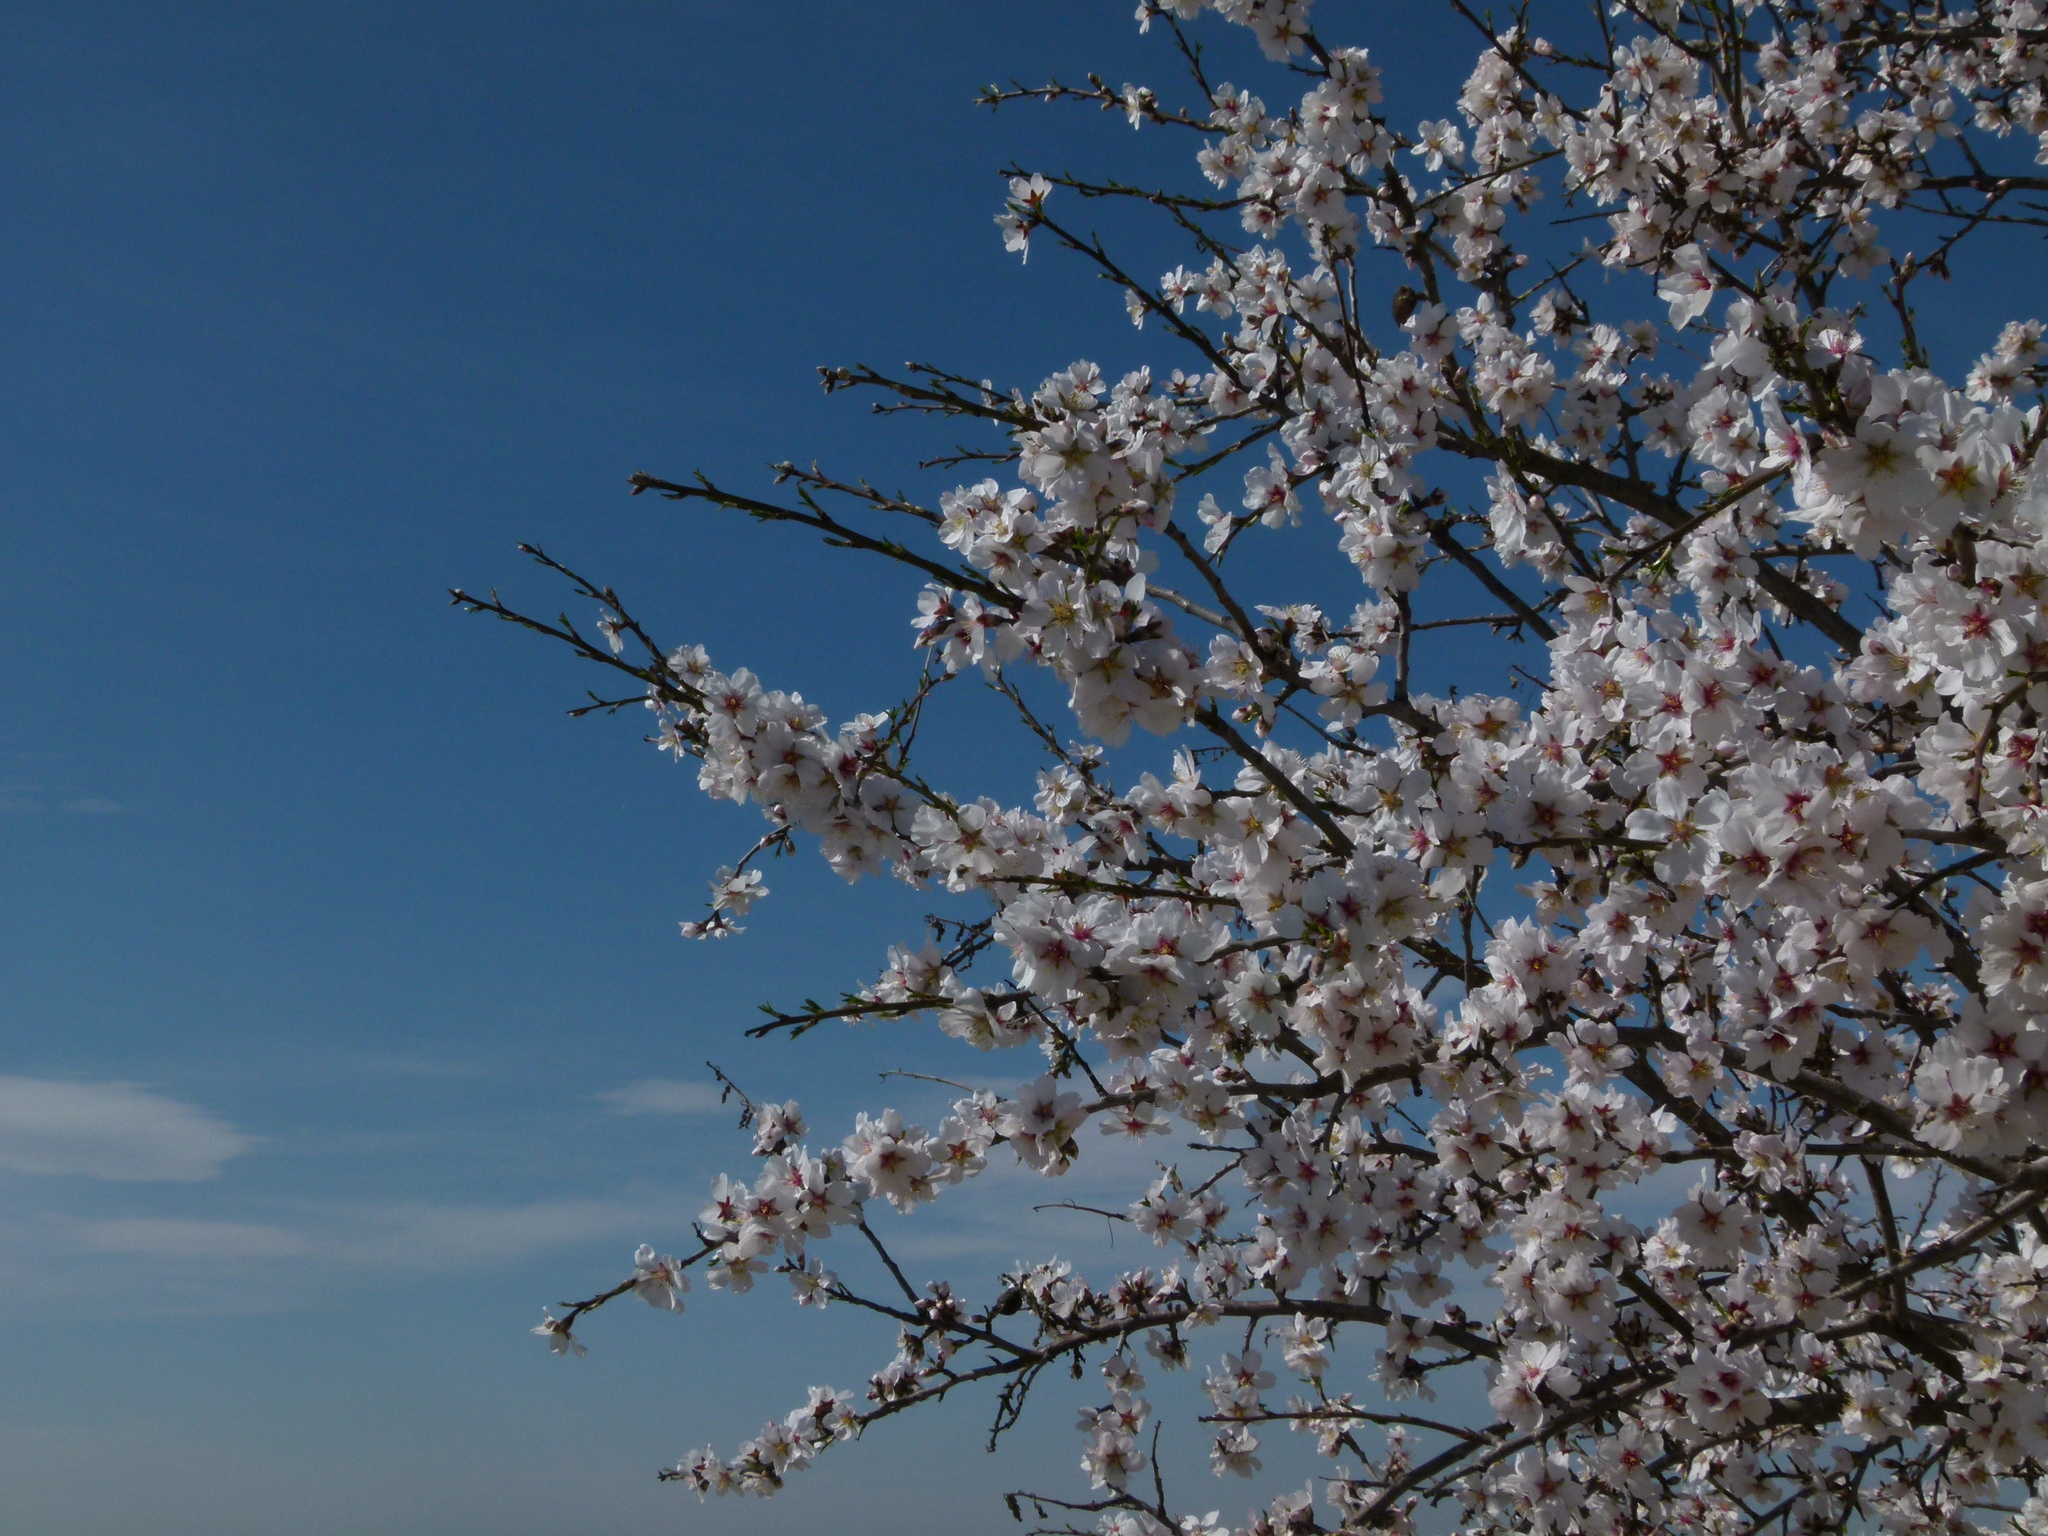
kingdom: Plantae
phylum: Tracheophyta
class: Magnoliopsida
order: Rosales
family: Rosaceae
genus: Prunus
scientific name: Prunus amygdalus
